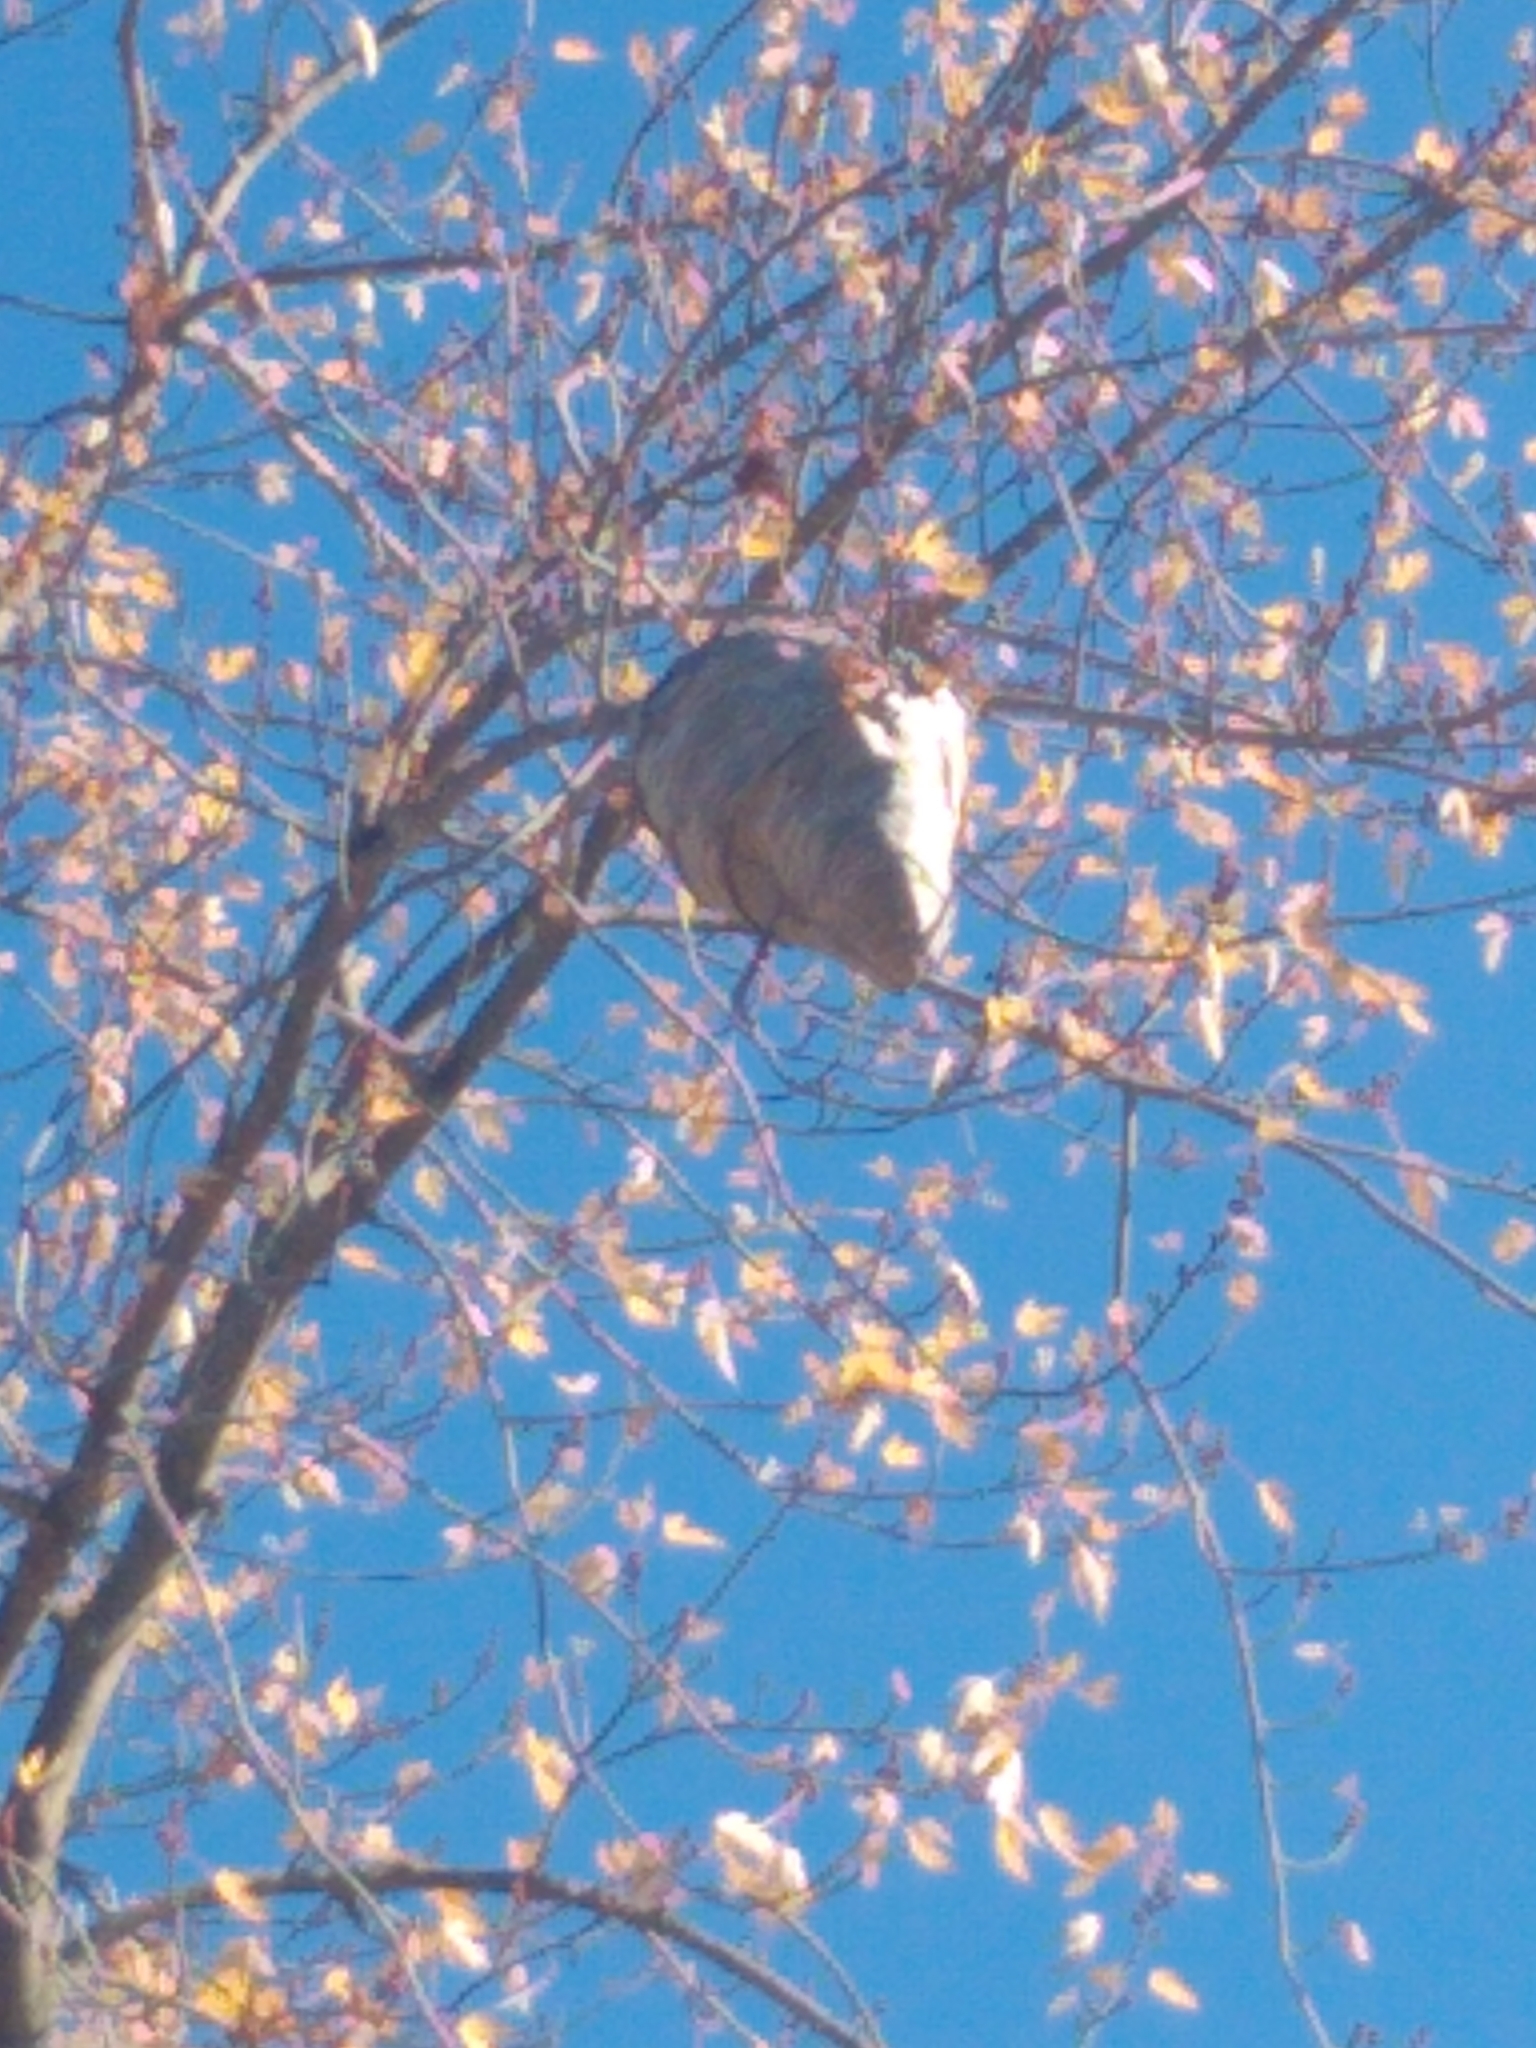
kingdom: Animalia
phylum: Arthropoda
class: Insecta
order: Hymenoptera
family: Vespidae
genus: Dolichovespula
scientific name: Dolichovespula
